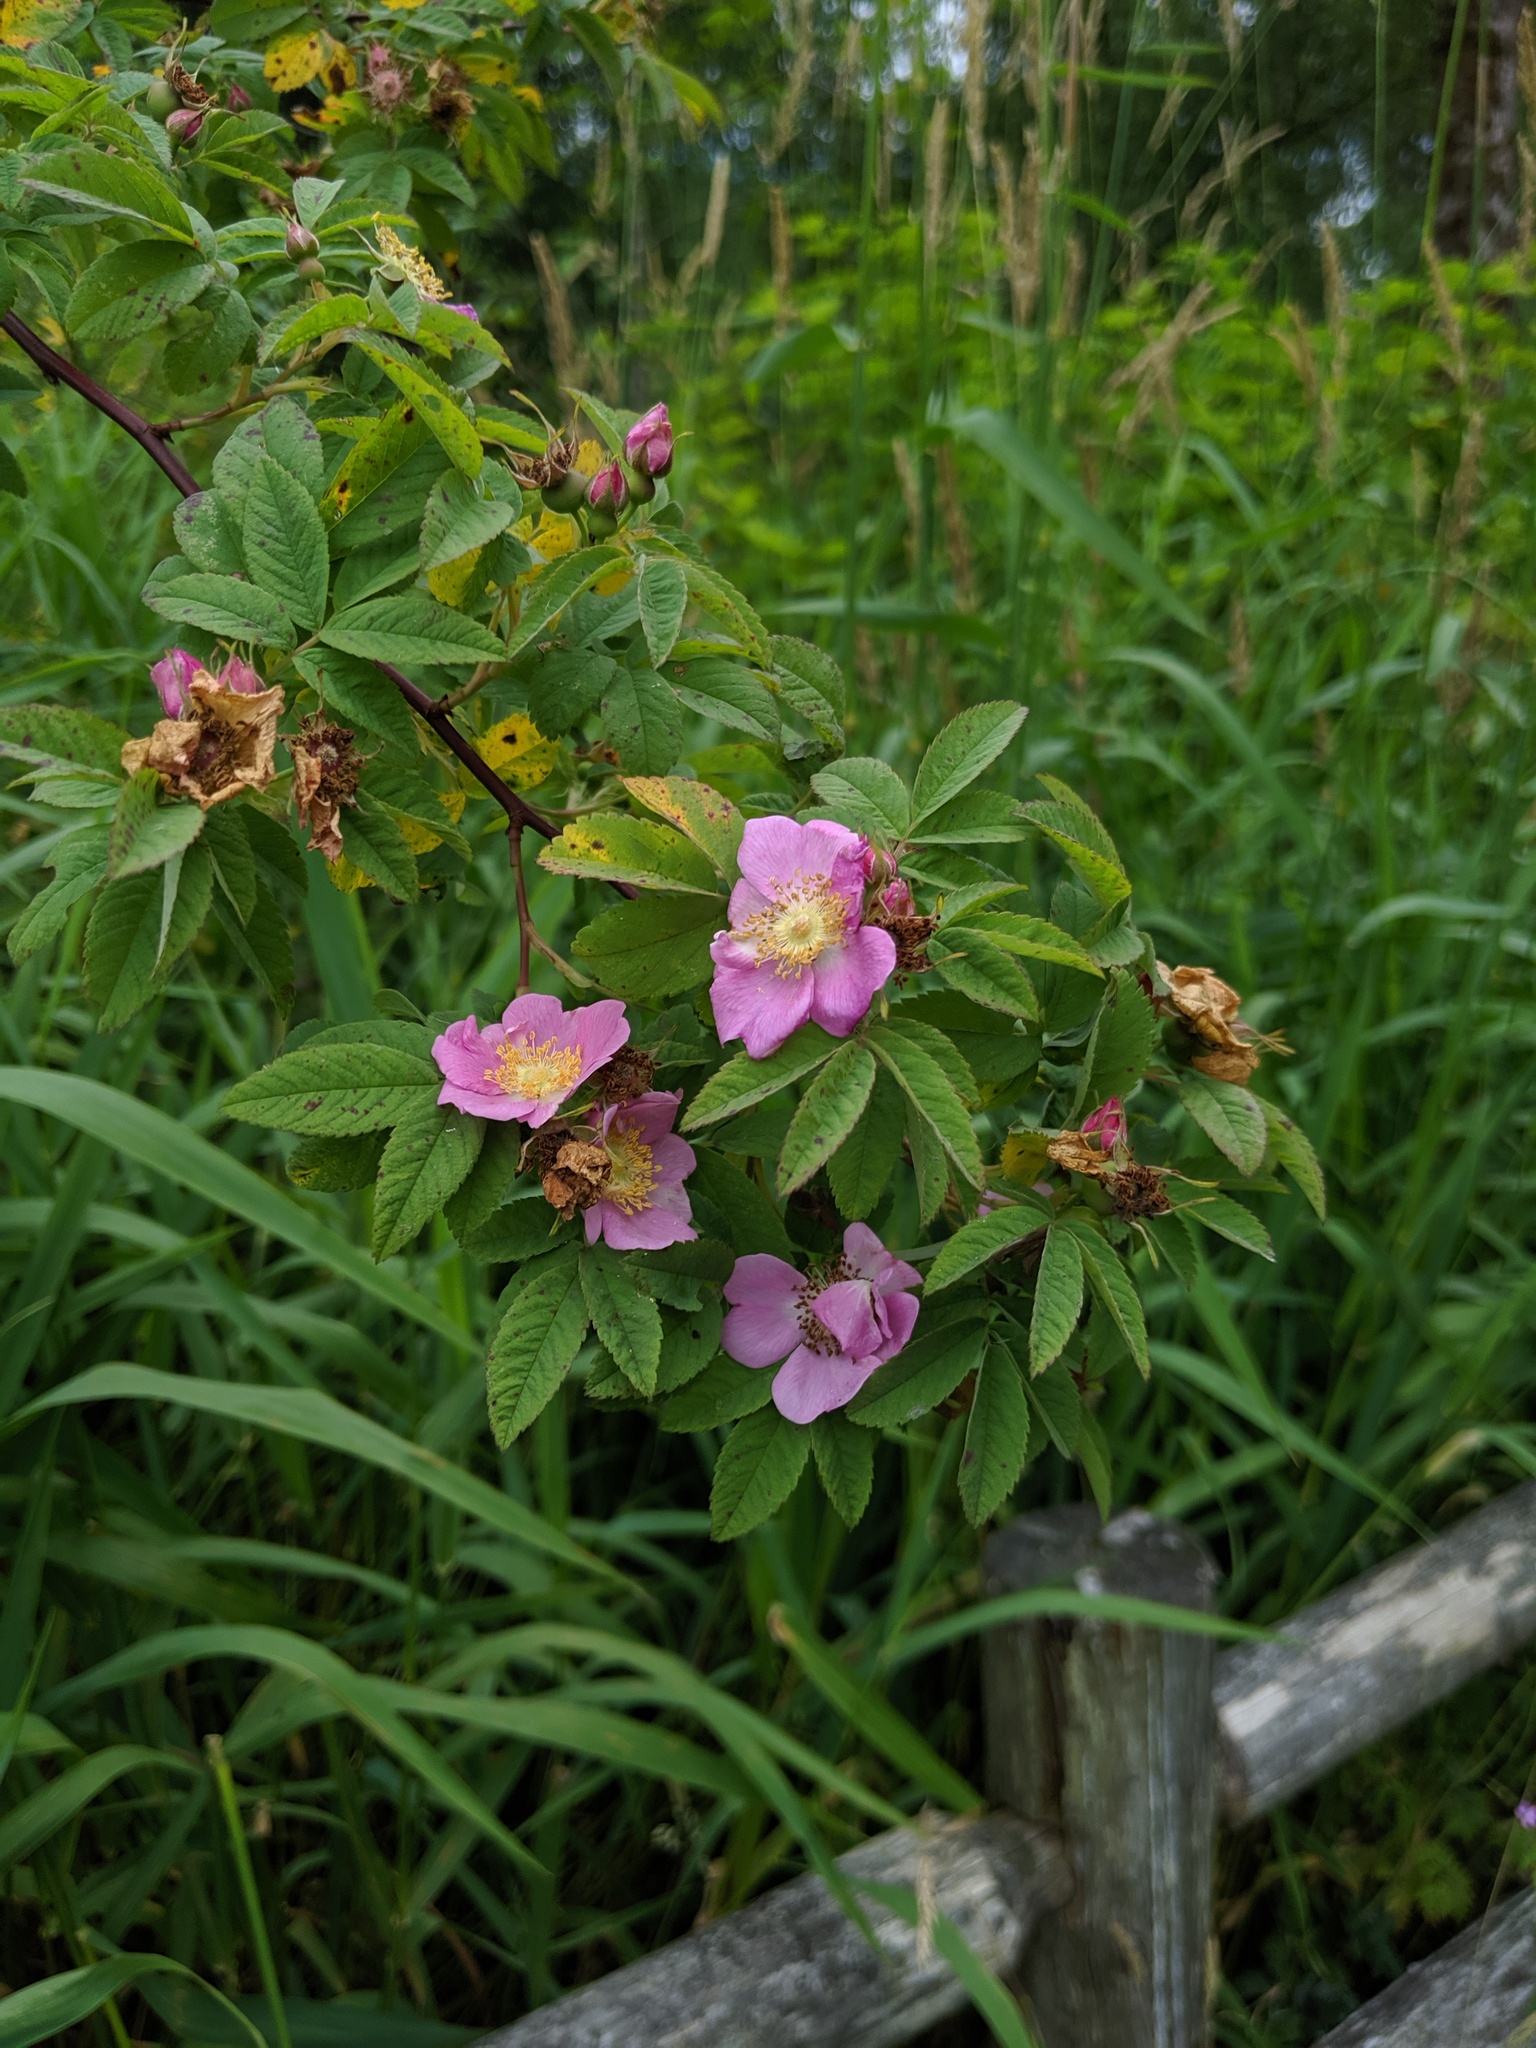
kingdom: Plantae
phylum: Tracheophyta
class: Magnoliopsida
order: Rosales
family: Rosaceae
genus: Rosa
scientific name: Rosa nutkana
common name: Nootka rose
